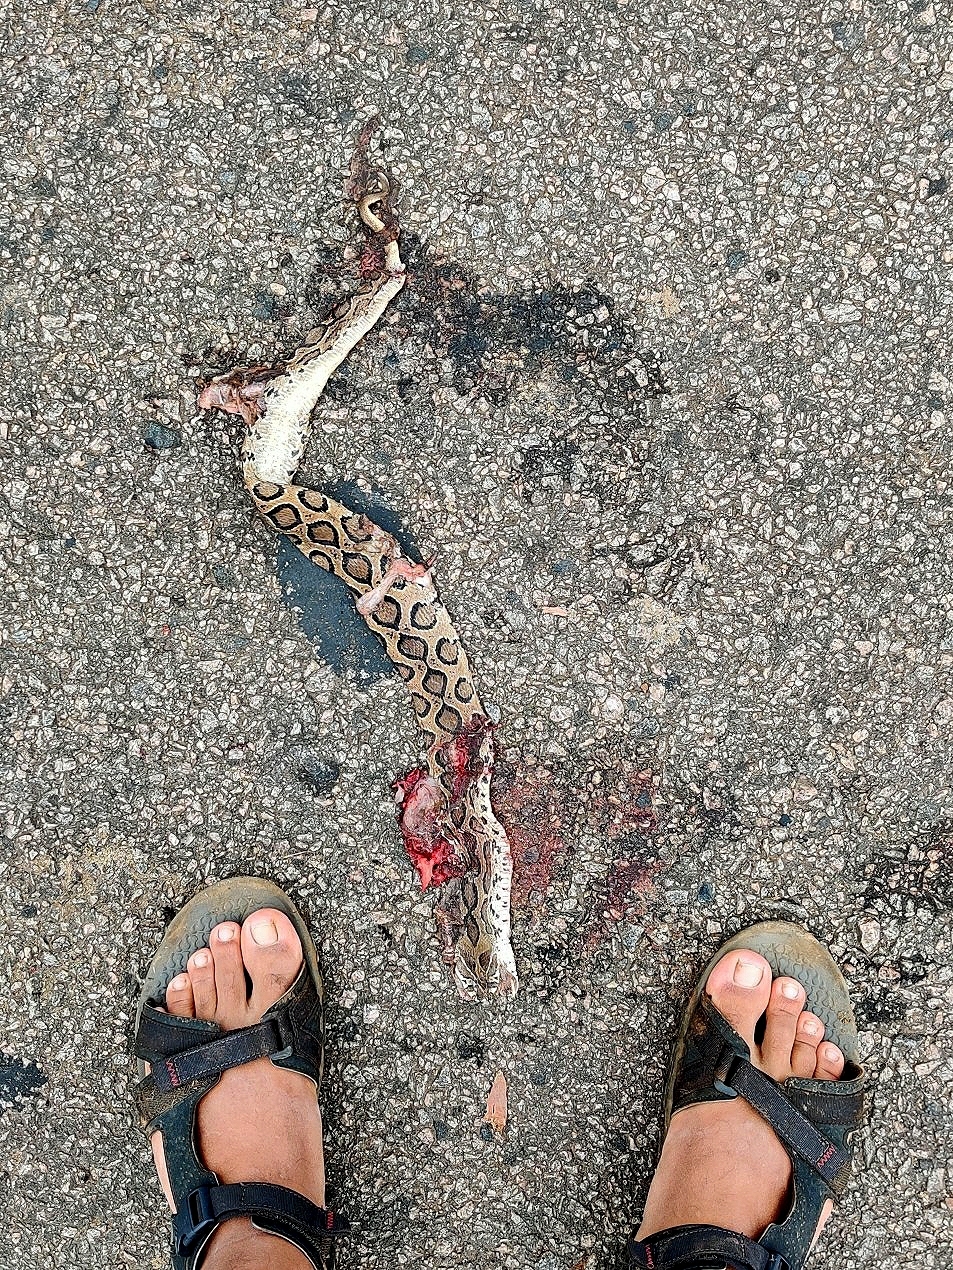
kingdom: Animalia
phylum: Chordata
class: Squamata
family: Viperidae
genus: Daboia
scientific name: Daboia russelii
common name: Western russel’s viper
